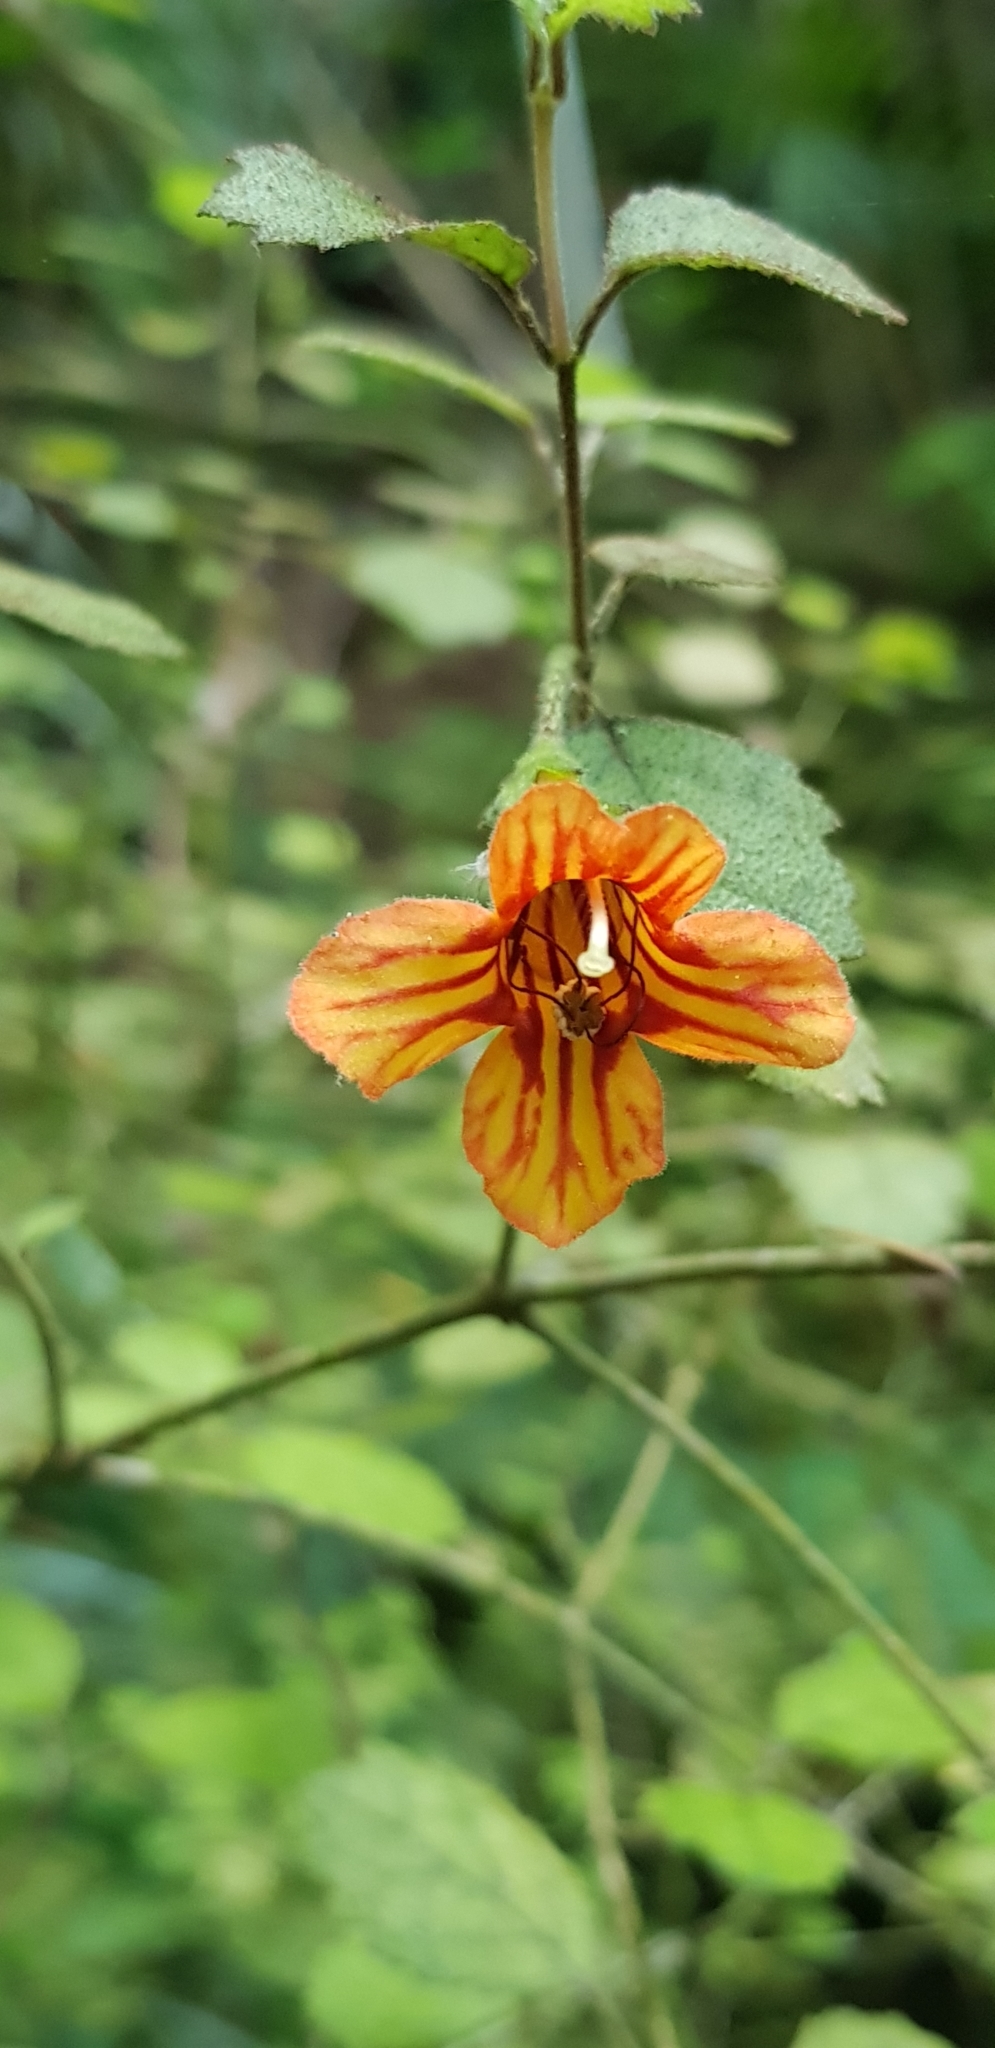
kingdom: Plantae
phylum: Tracheophyta
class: Magnoliopsida
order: Lamiales
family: Gesneriaceae
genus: Rhabdothamnus
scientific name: Rhabdothamnus solandri
